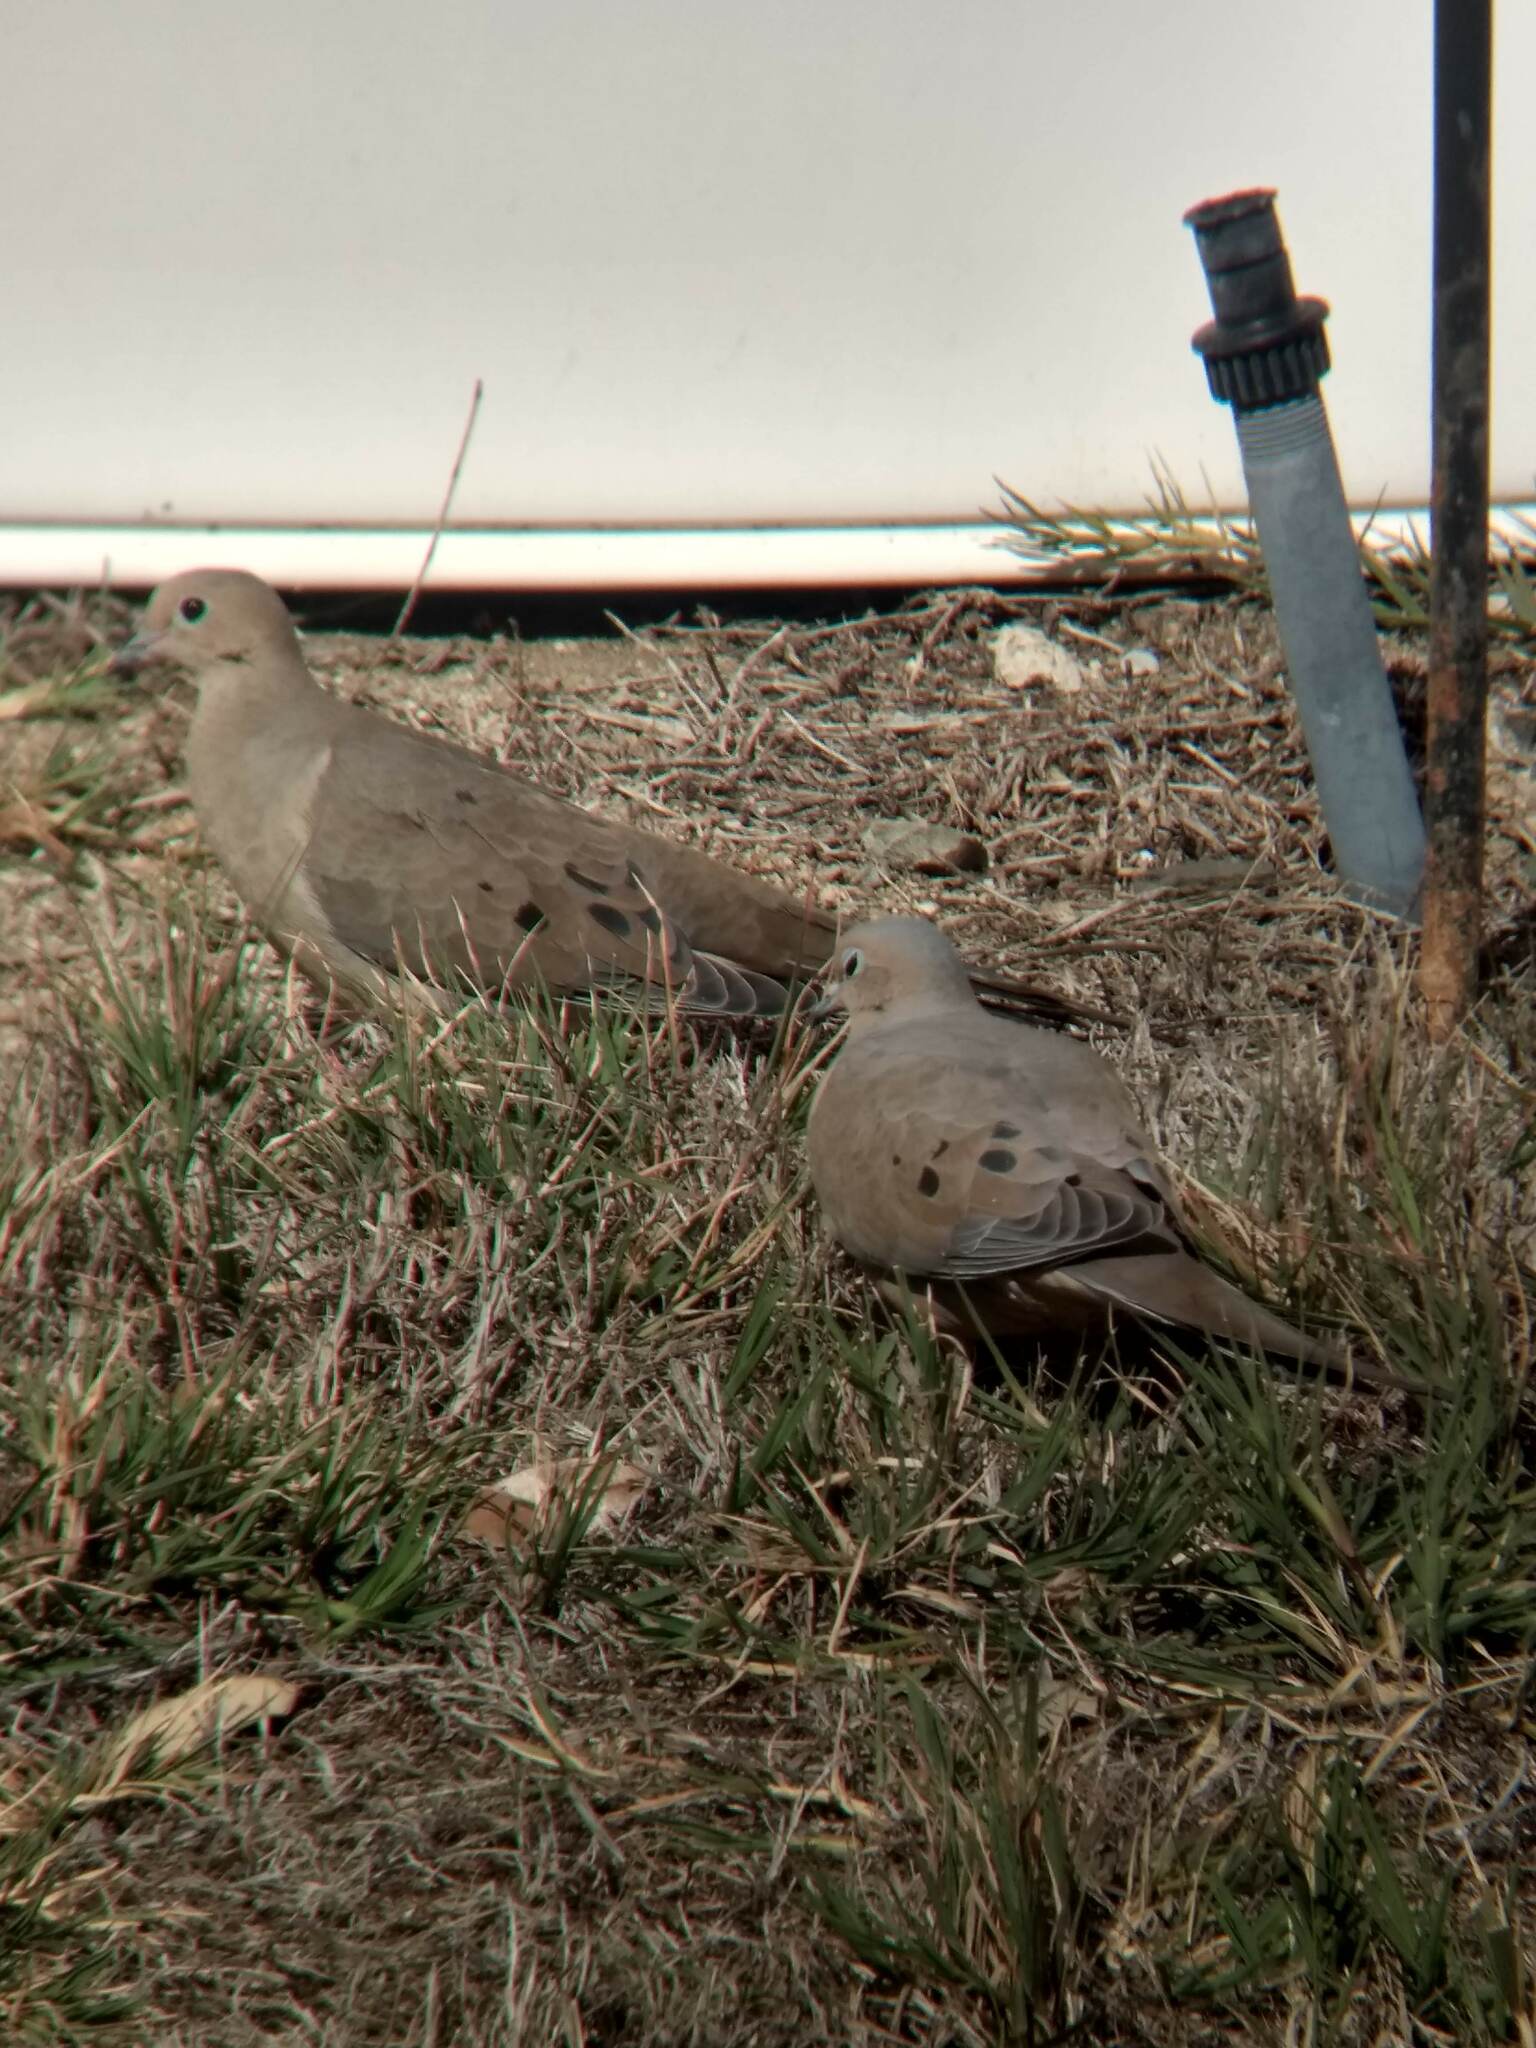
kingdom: Animalia
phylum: Chordata
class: Aves
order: Columbiformes
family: Columbidae
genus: Zenaida
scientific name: Zenaida macroura
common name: Mourning dove
